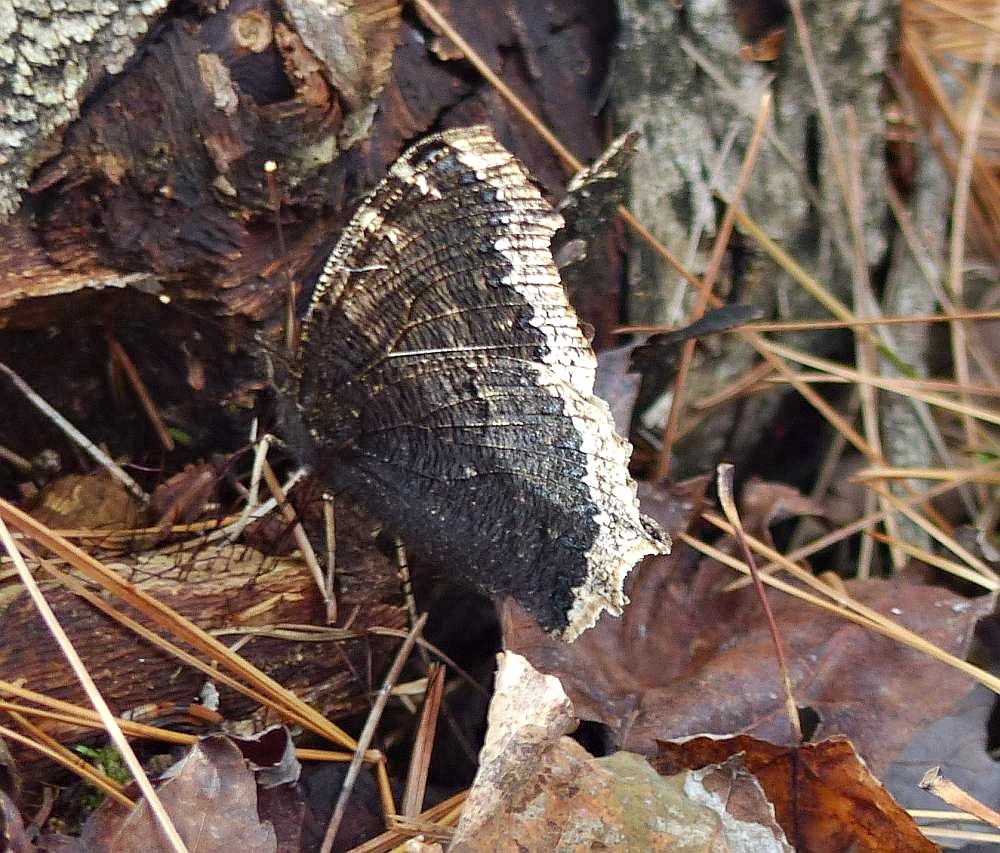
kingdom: Animalia
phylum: Arthropoda
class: Insecta
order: Lepidoptera
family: Nymphalidae
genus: Nymphalis
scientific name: Nymphalis antiopa
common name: Camberwell beauty
